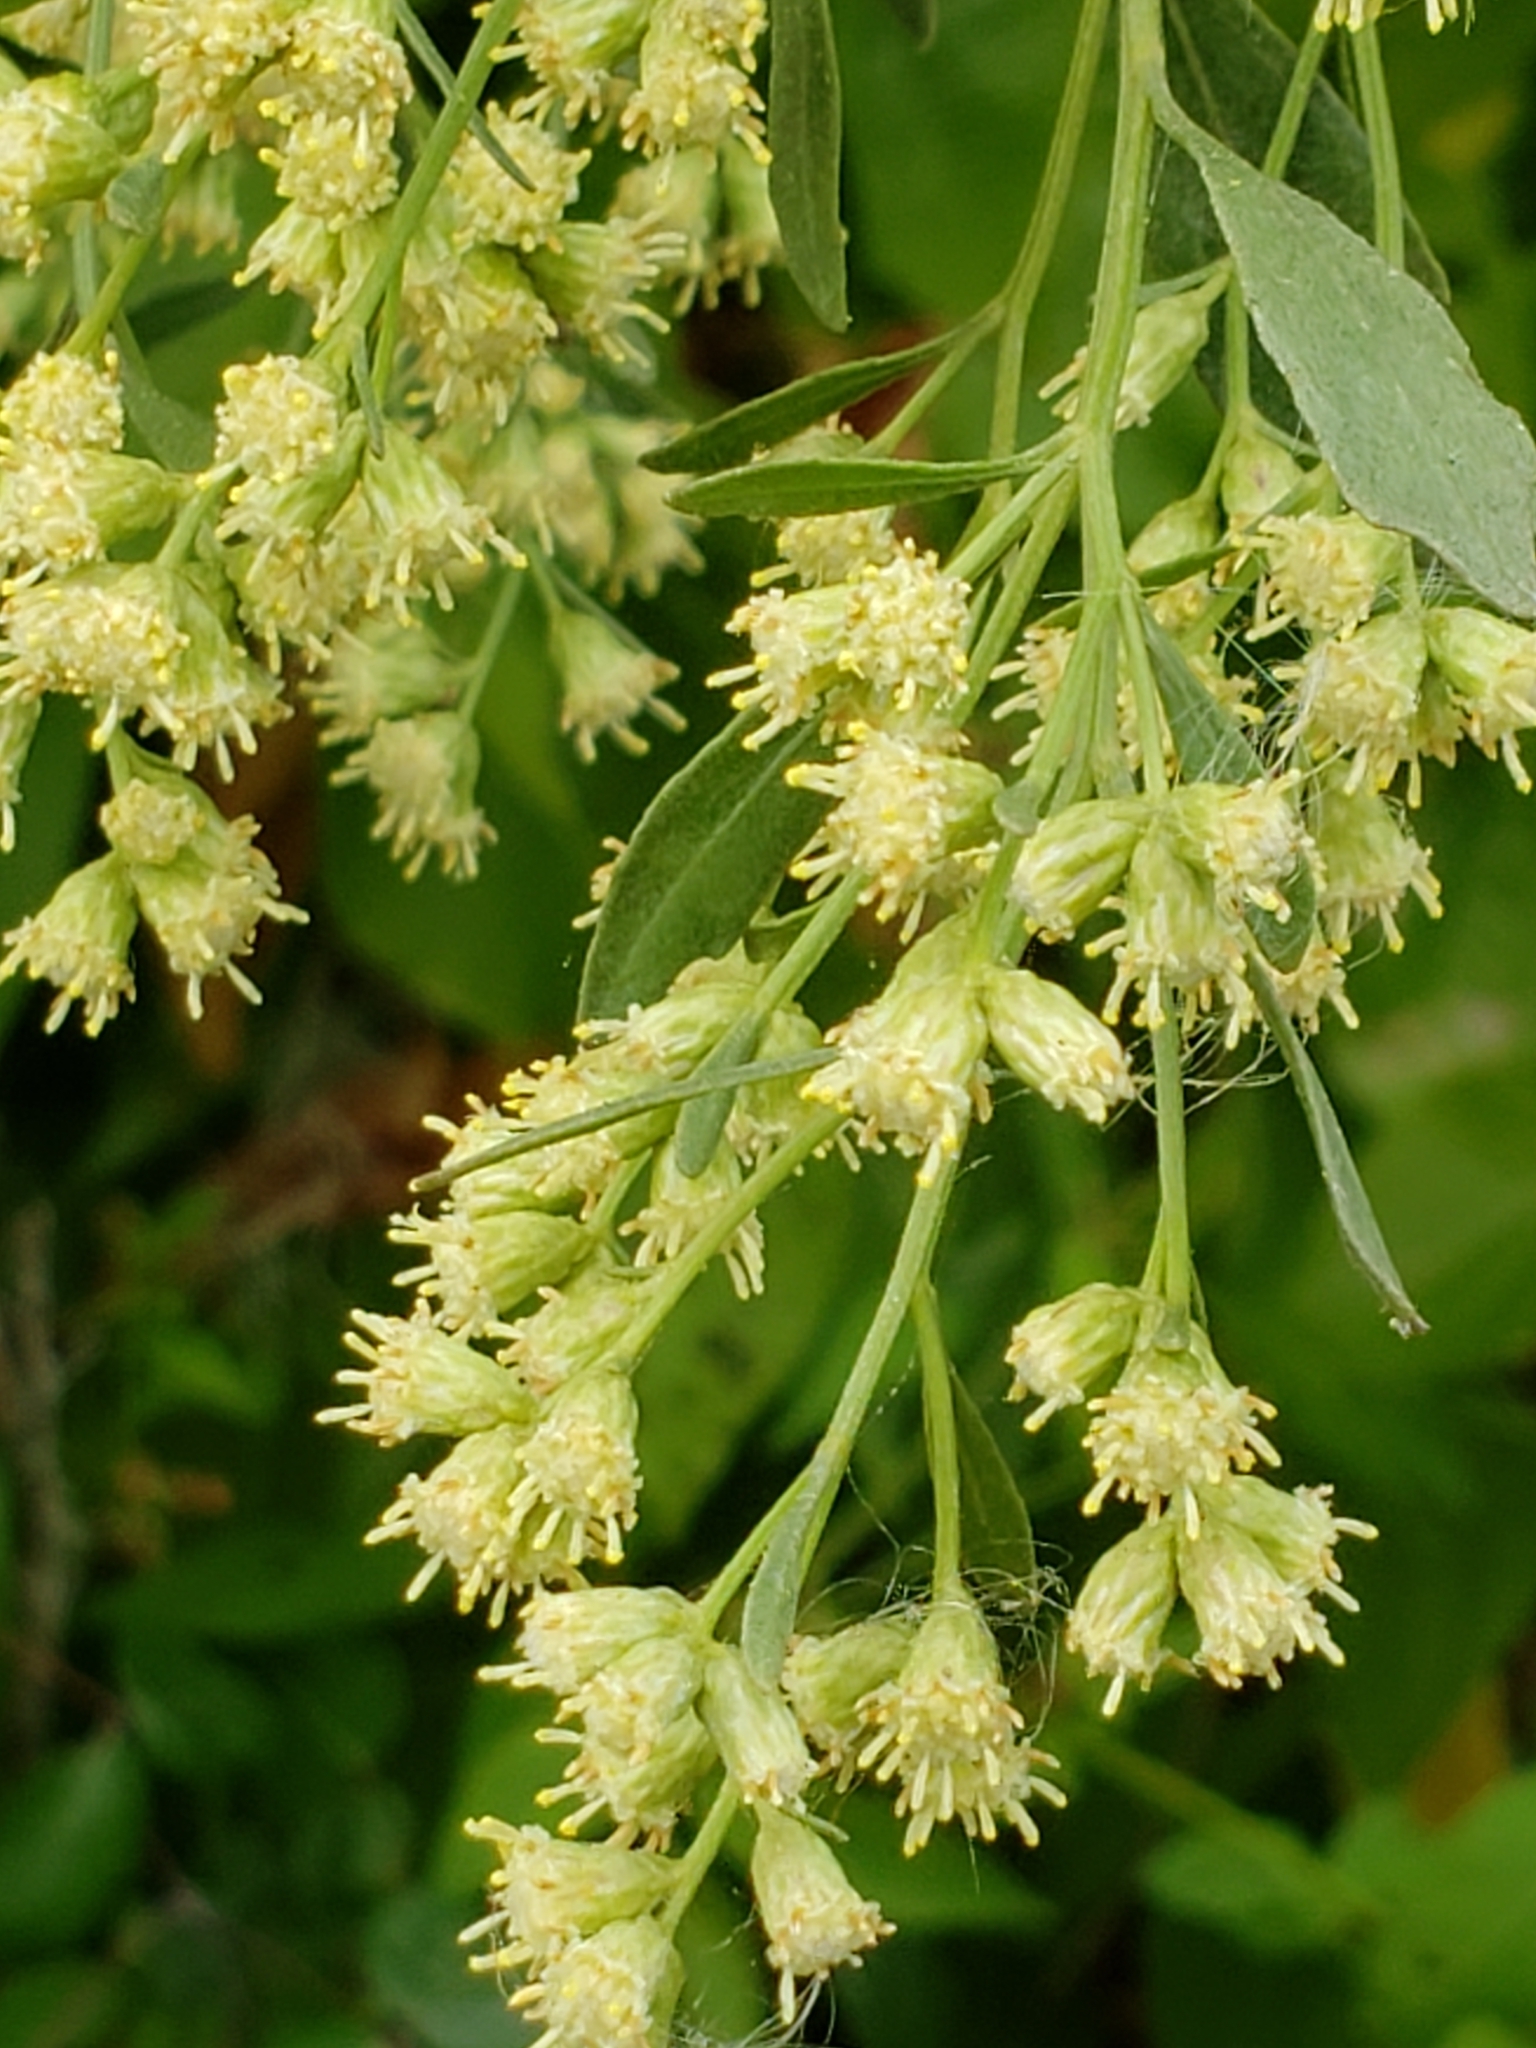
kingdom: Plantae
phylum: Tracheophyta
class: Magnoliopsida
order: Asterales
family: Asteraceae
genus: Baccharis
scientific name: Baccharis halimifolia
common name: Eastern baccharis
